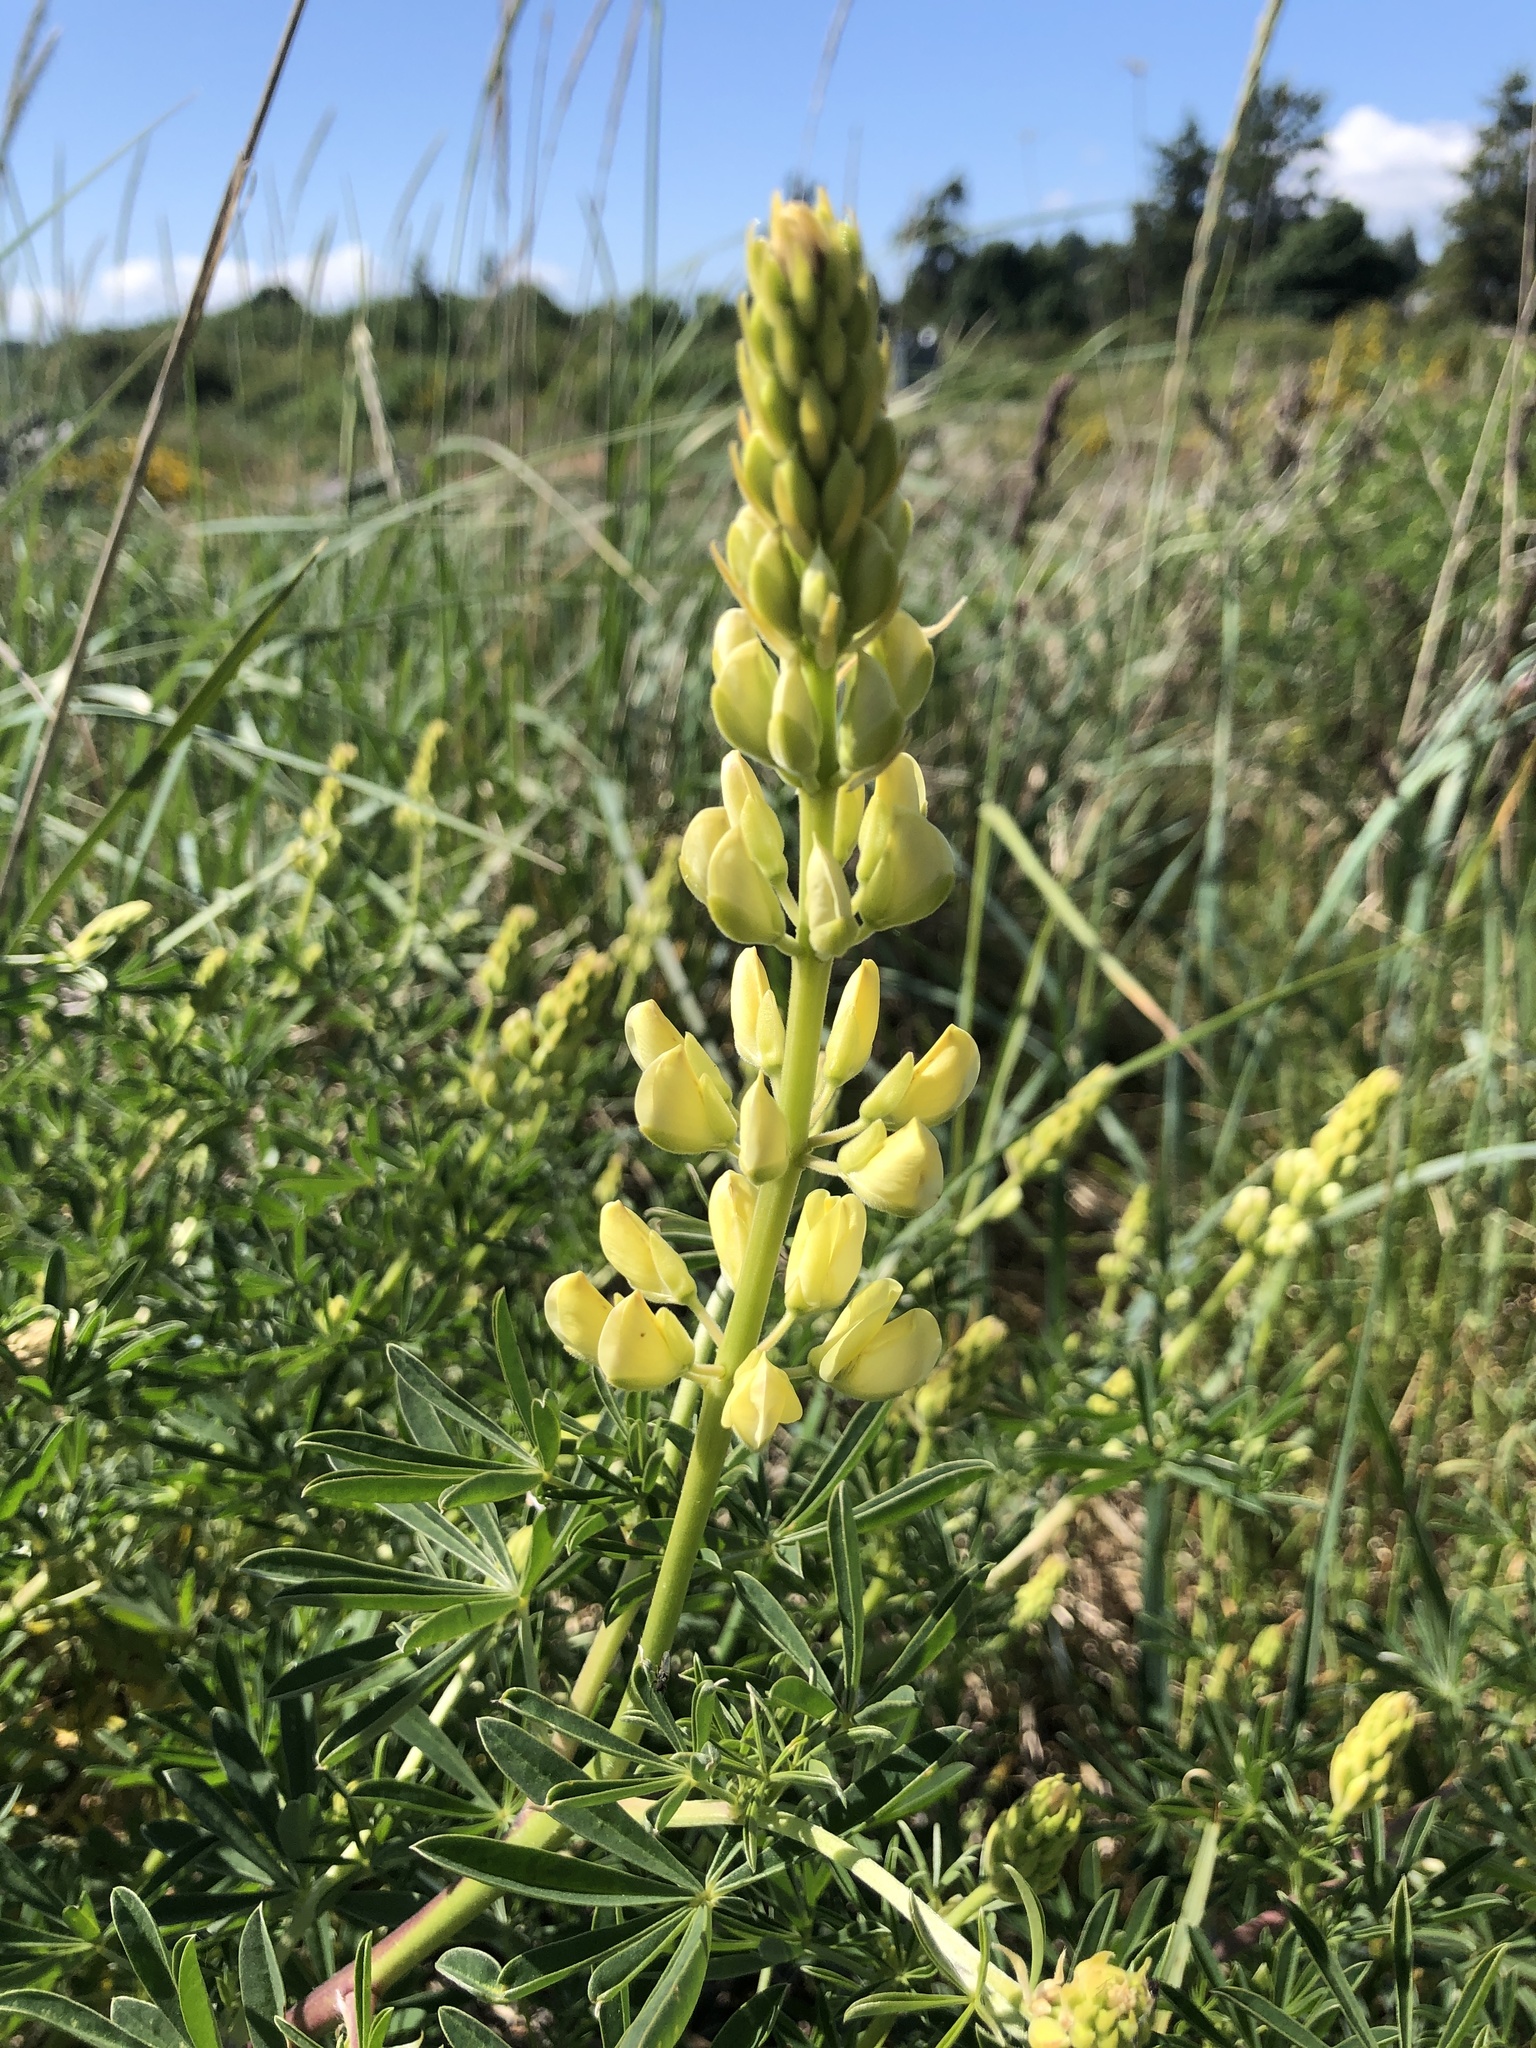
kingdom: Plantae
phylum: Tracheophyta
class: Magnoliopsida
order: Fabales
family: Fabaceae
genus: Lupinus
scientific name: Lupinus arboreus
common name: Yellow bush lupine
